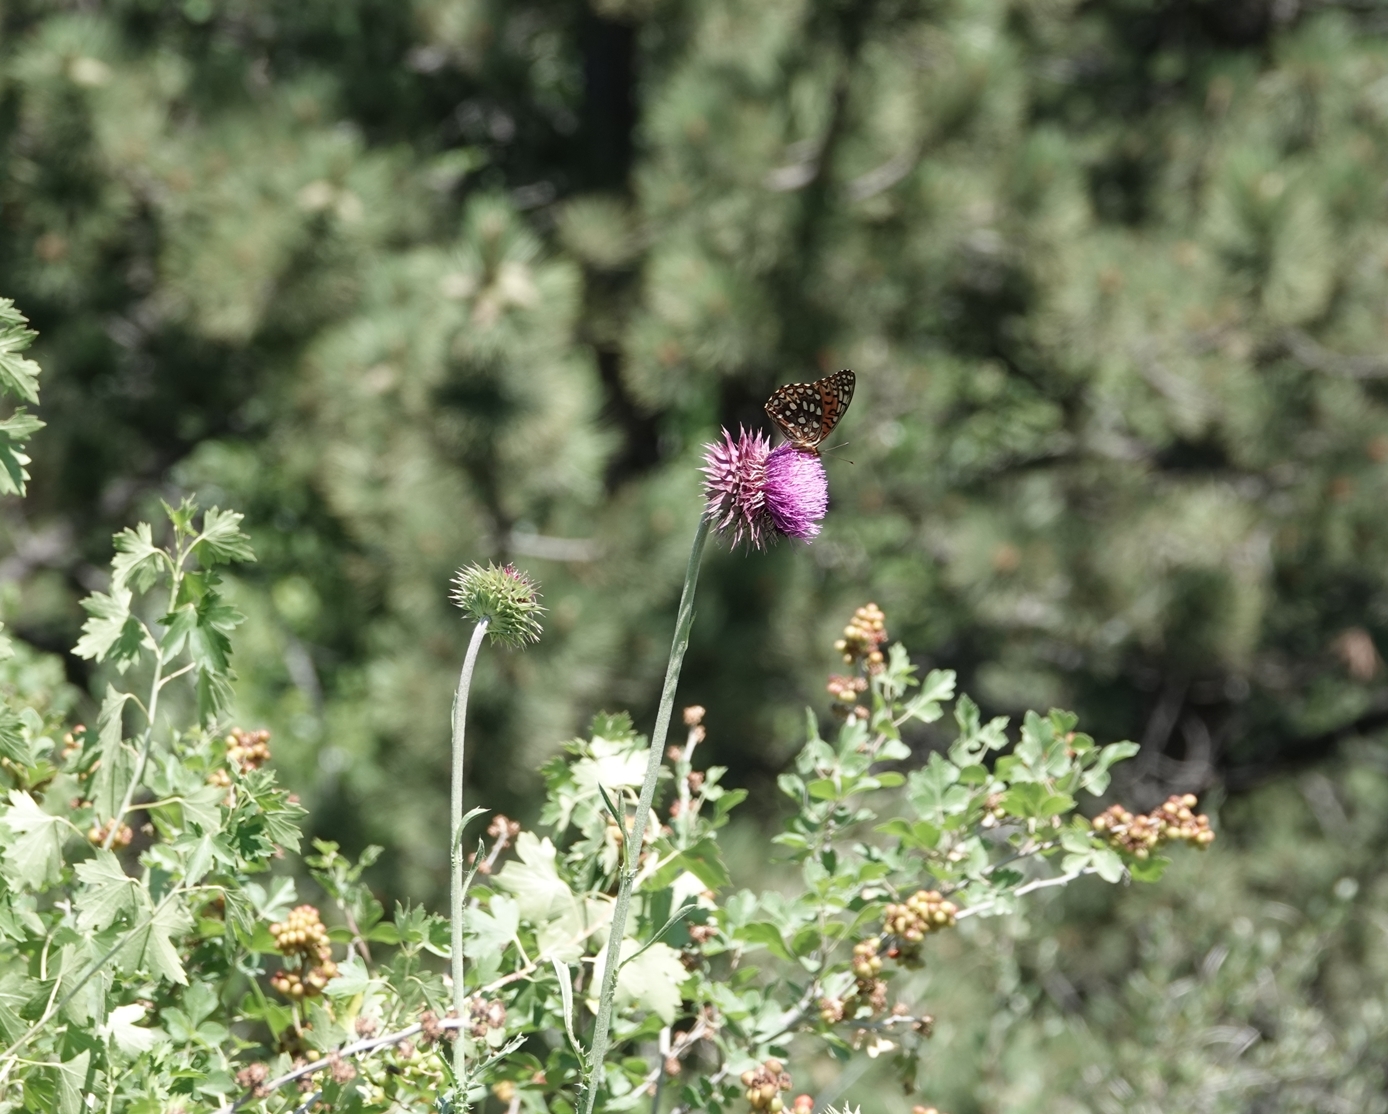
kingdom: Plantae
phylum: Tracheophyta
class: Magnoliopsida
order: Asterales
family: Asteraceae
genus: Carduus
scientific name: Carduus nutans
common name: Musk thistle
